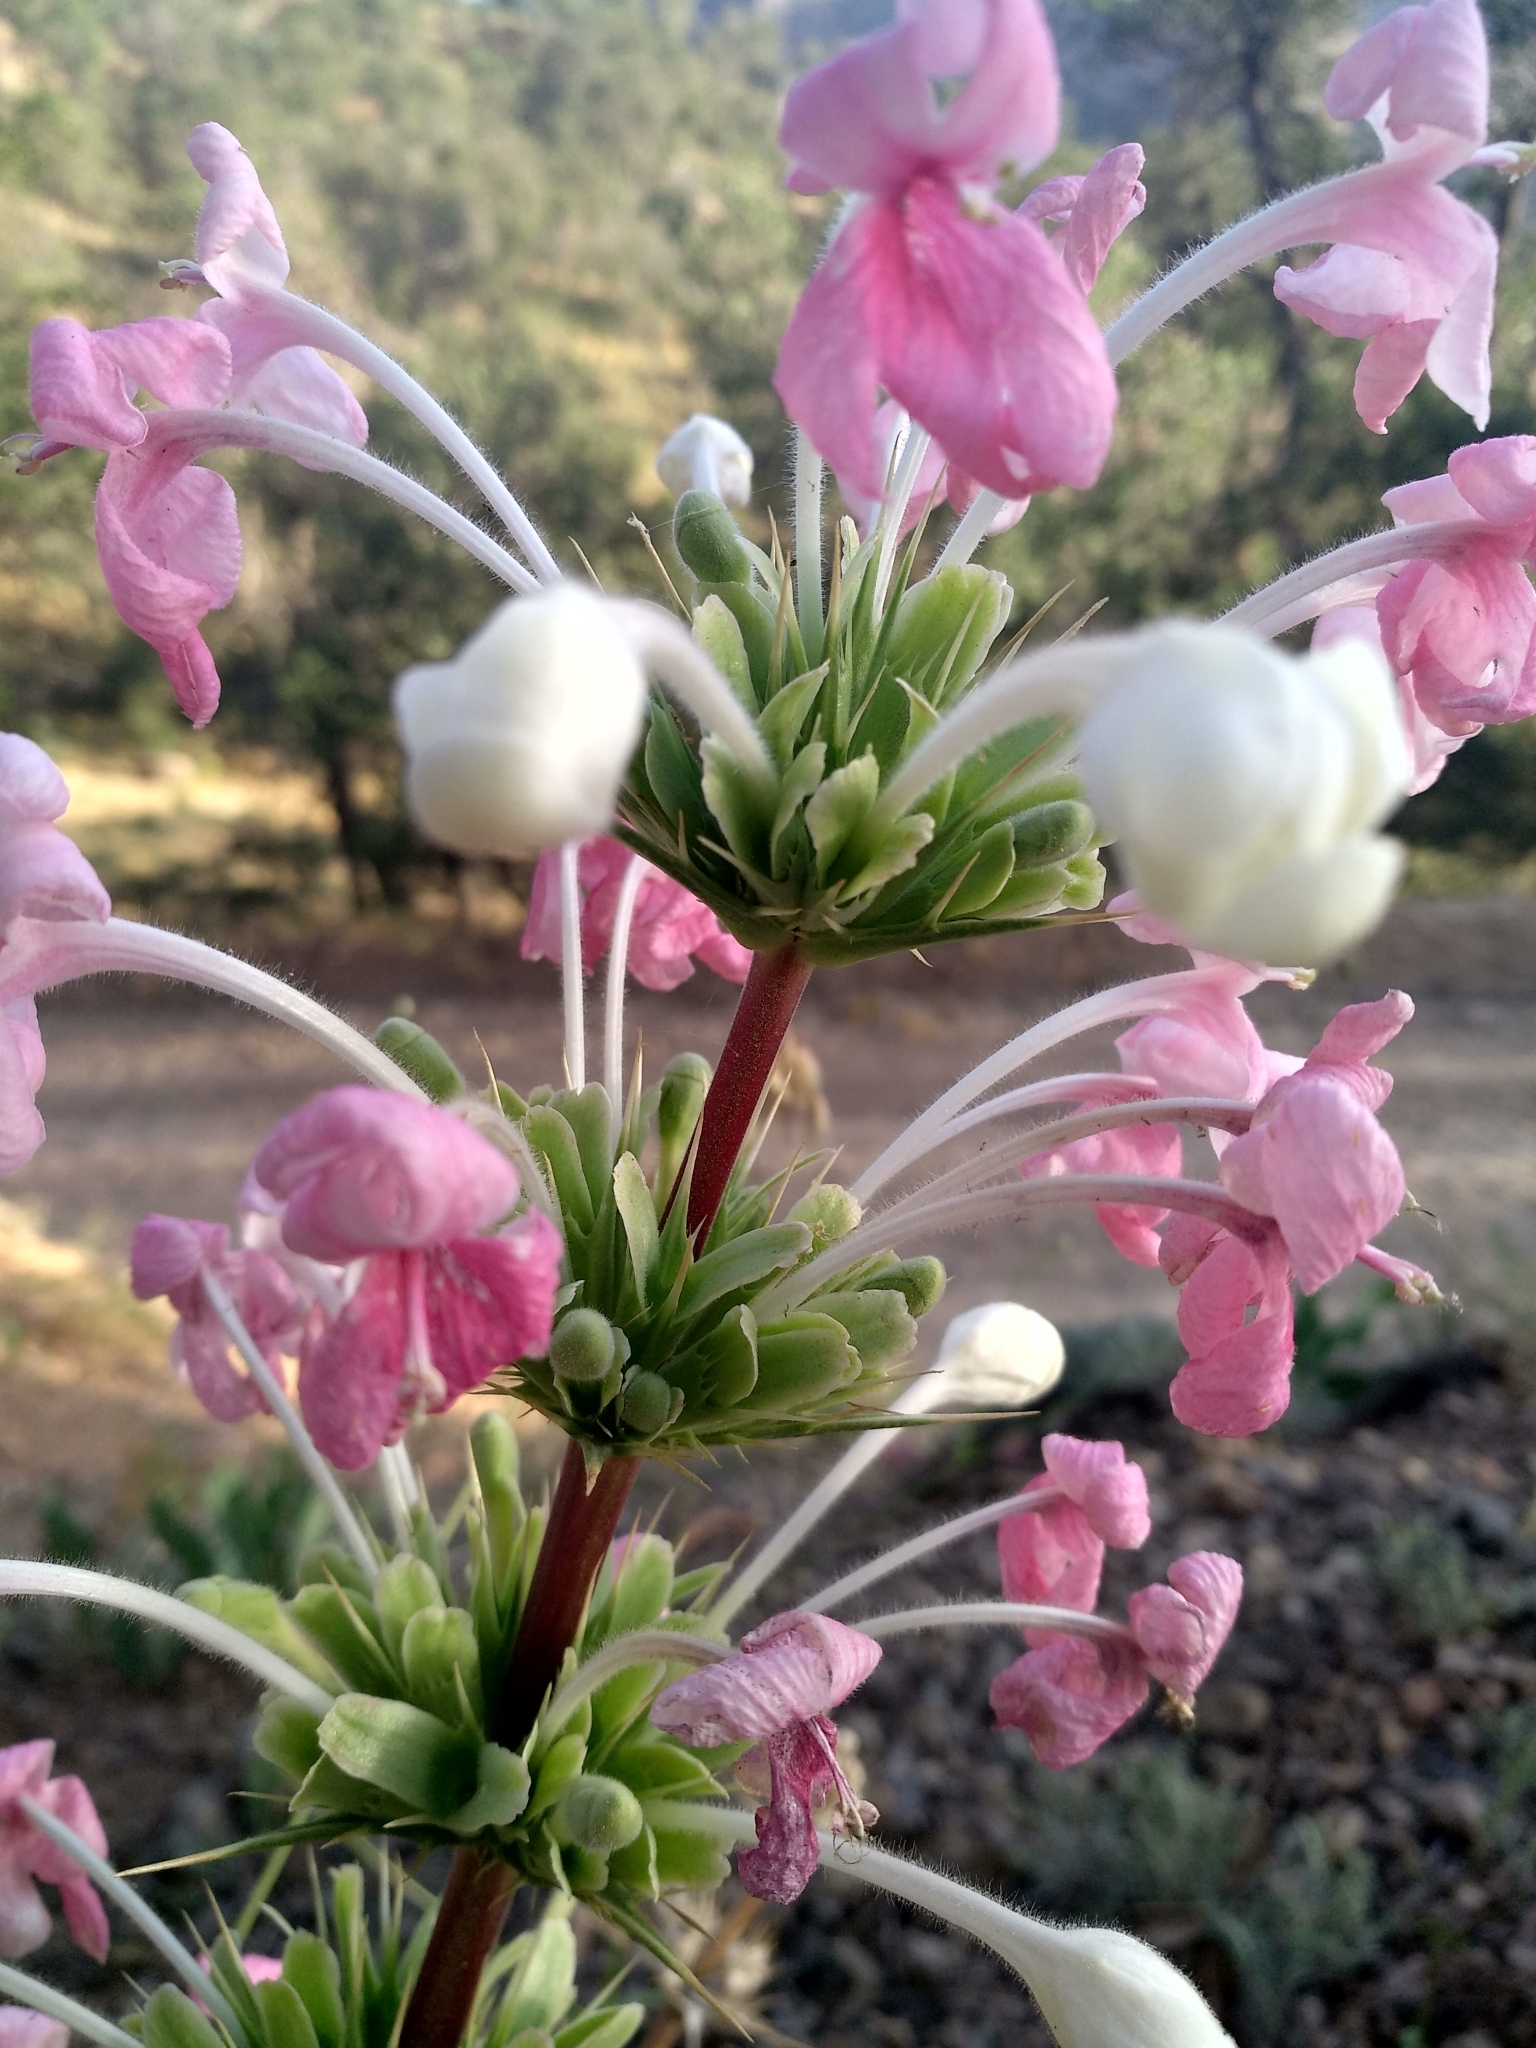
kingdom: Plantae
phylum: Tracheophyta
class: Magnoliopsida
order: Dipsacales
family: Caprifoliaceae
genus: Morina
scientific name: Morina persica
